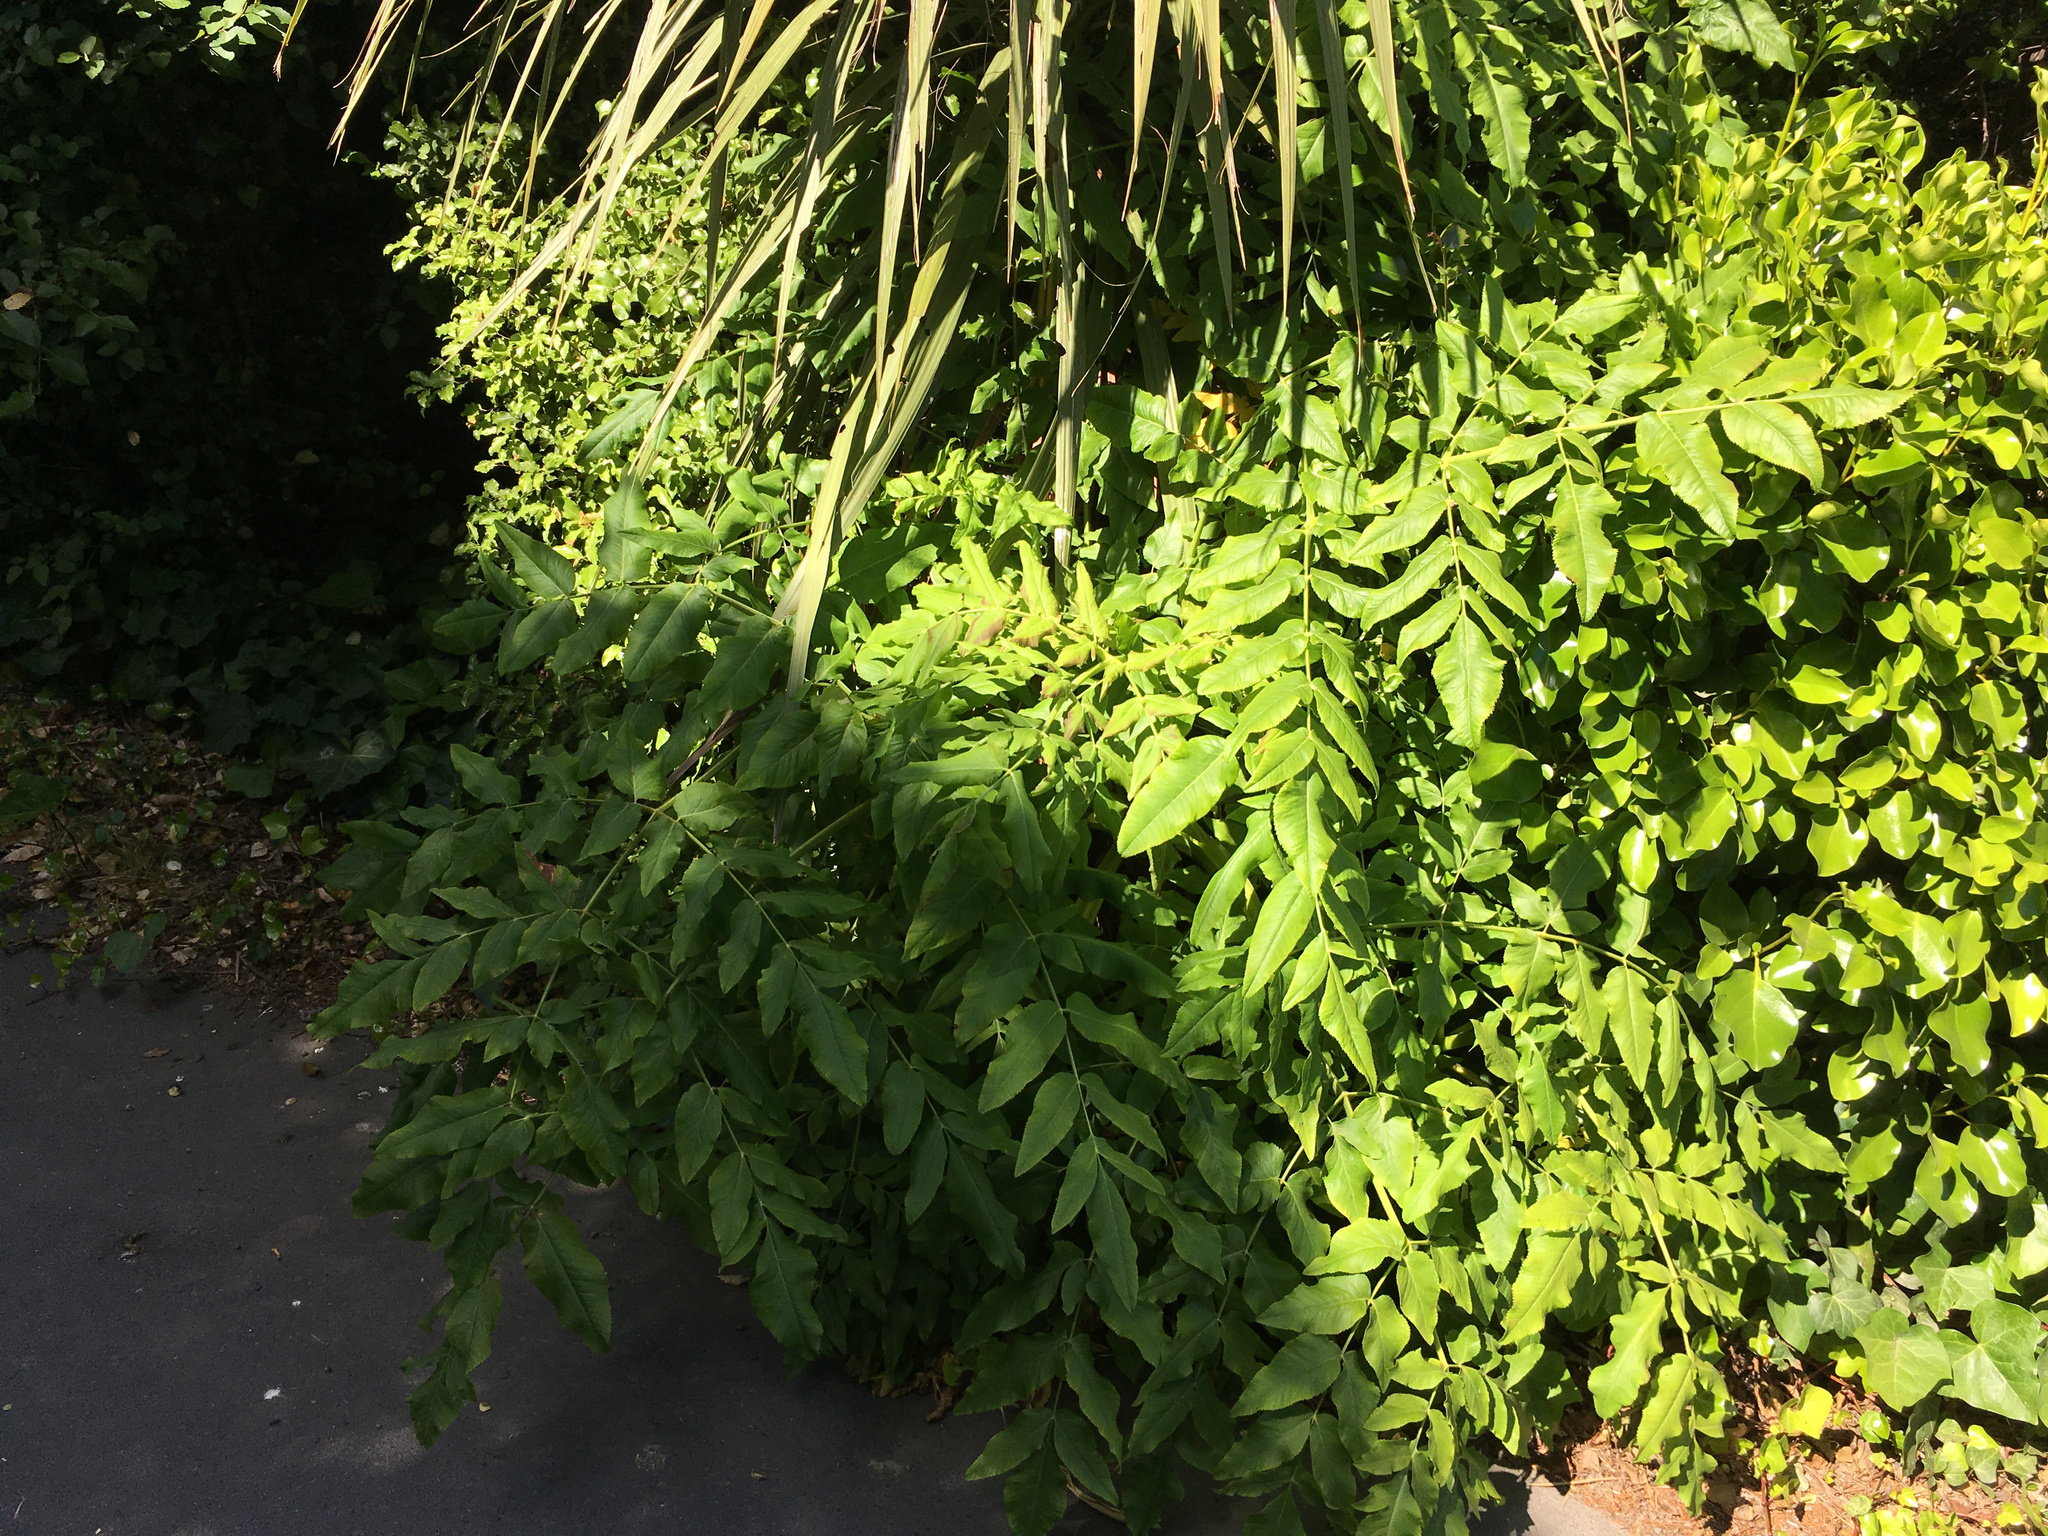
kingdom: Plantae
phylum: Tracheophyta
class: Magnoliopsida
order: Apiales
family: Apiaceae
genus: Daucus
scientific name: Daucus decipiens
